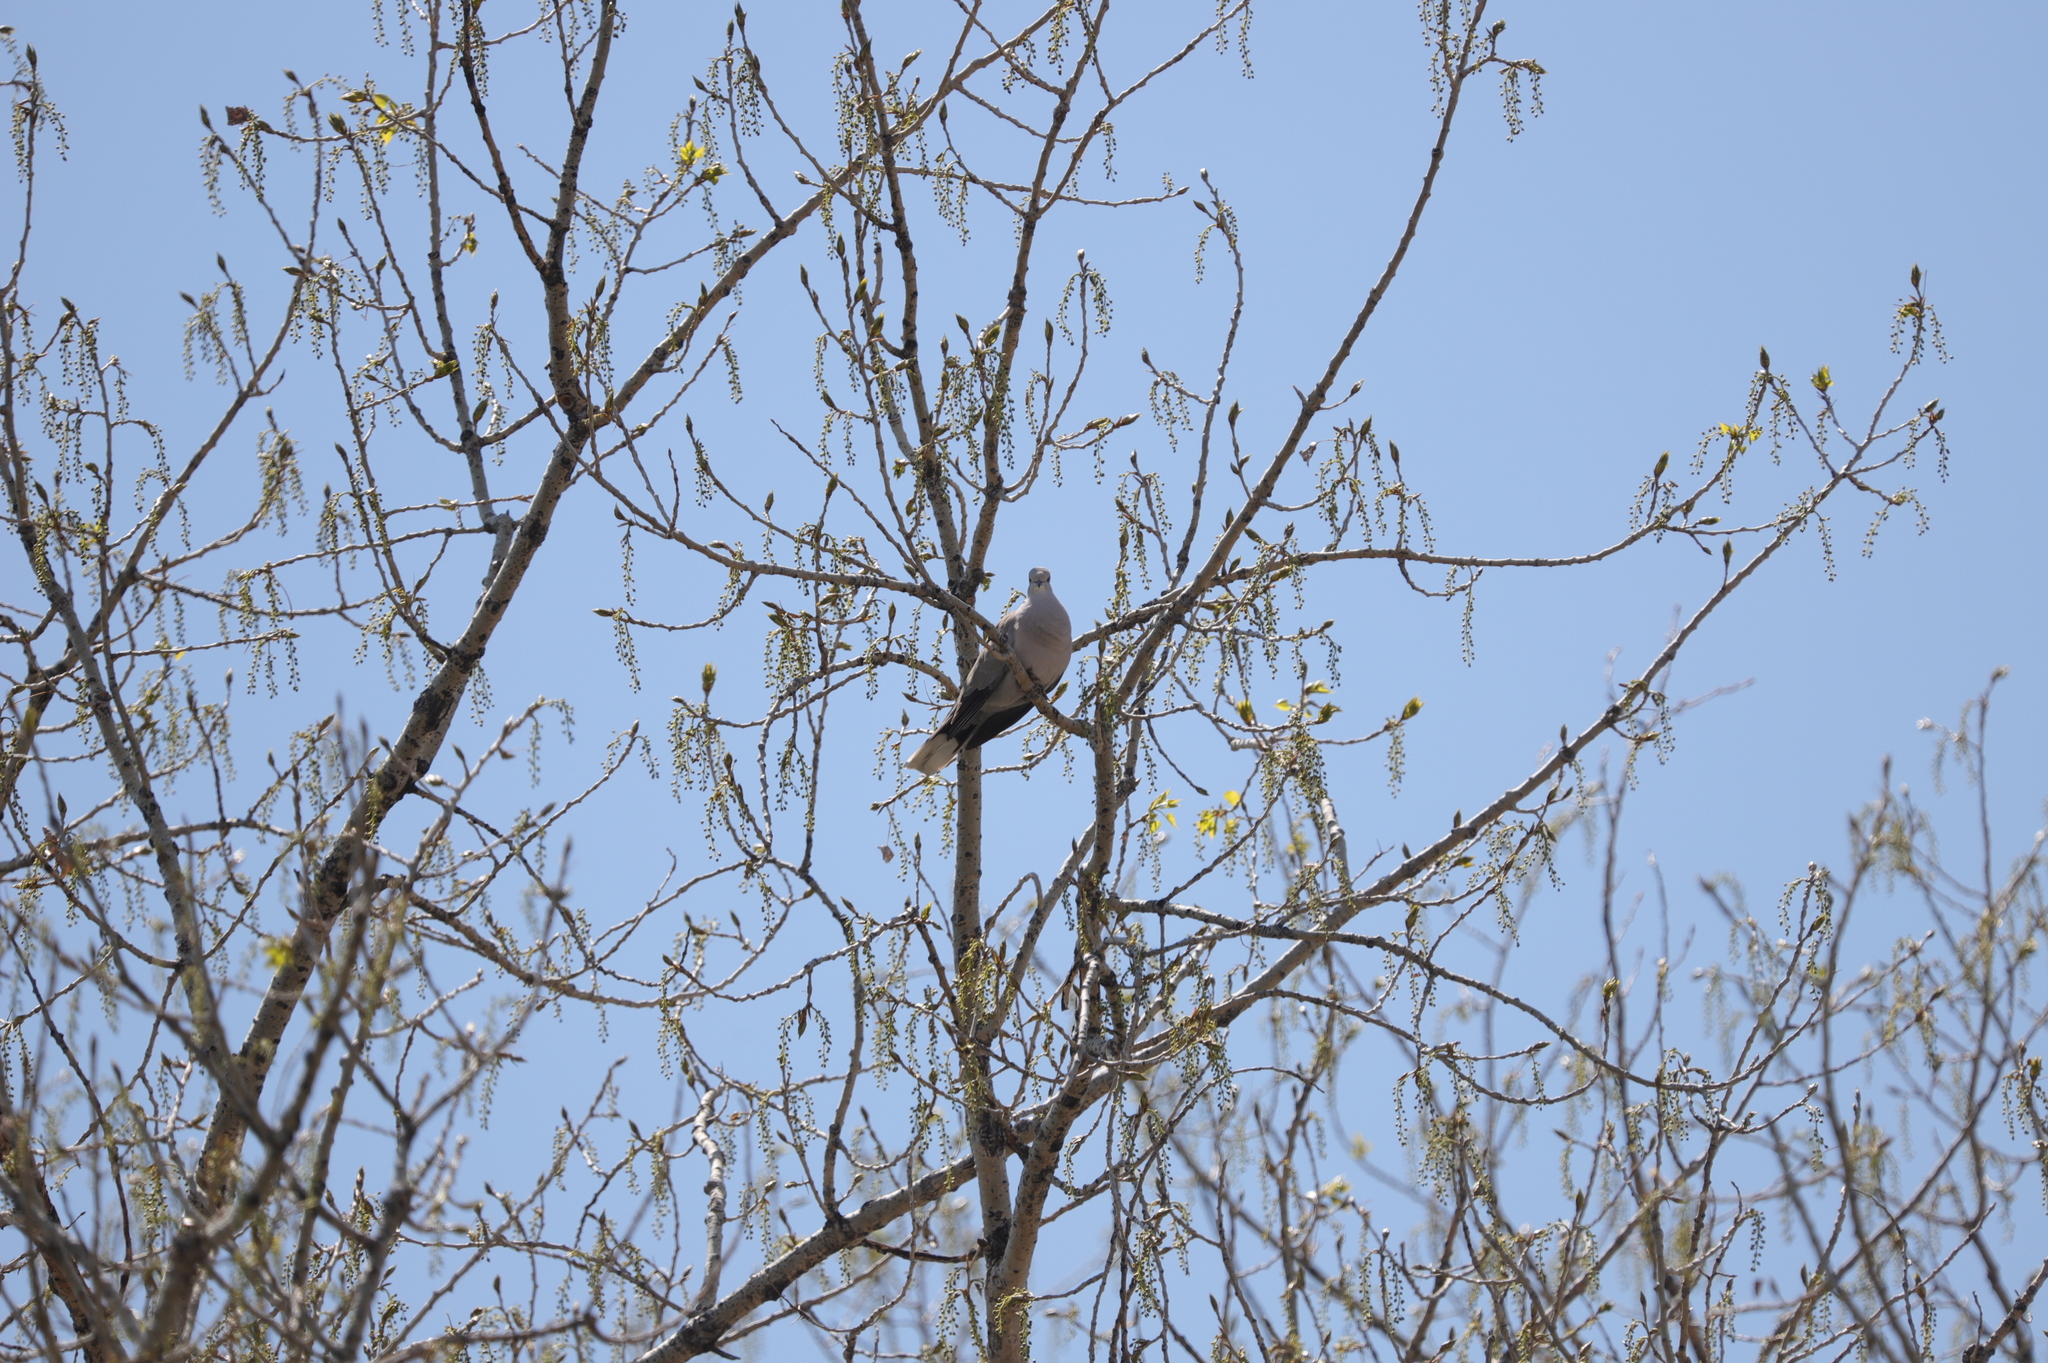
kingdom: Animalia
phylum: Chordata
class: Aves
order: Columbiformes
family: Columbidae
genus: Streptopelia
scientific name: Streptopelia decaocto
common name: Eurasian collared dove
